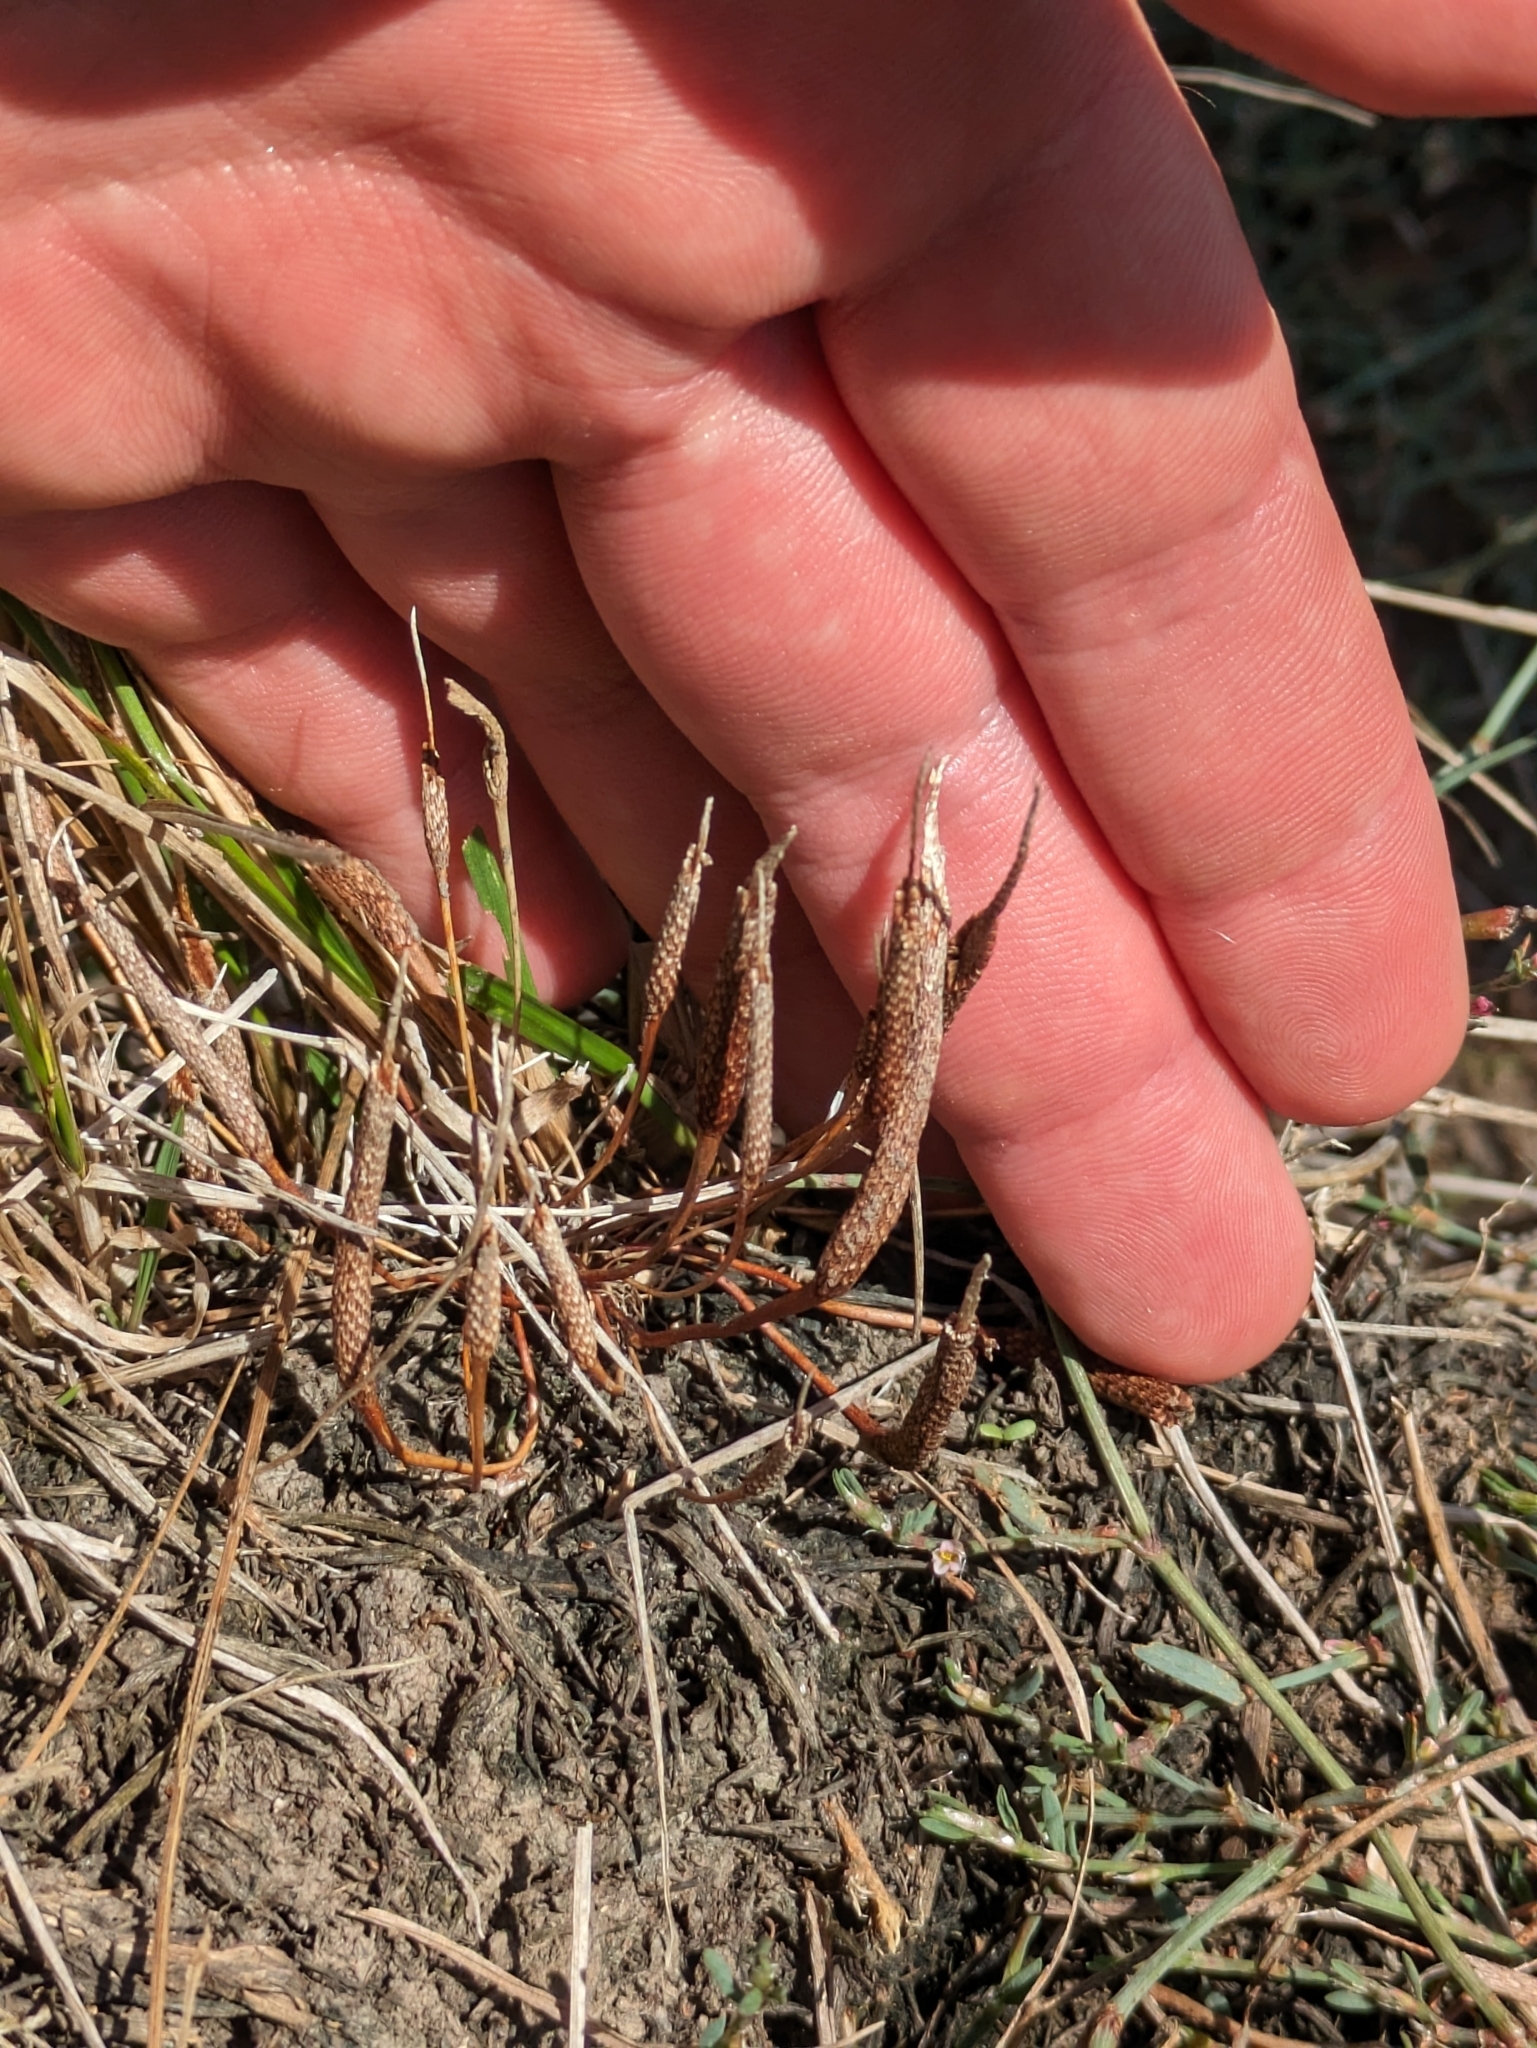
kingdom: Plantae
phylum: Tracheophyta
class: Magnoliopsida
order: Ranunculales
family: Ranunculaceae
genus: Myosurus
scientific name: Myosurus minimus
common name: Mousetail
